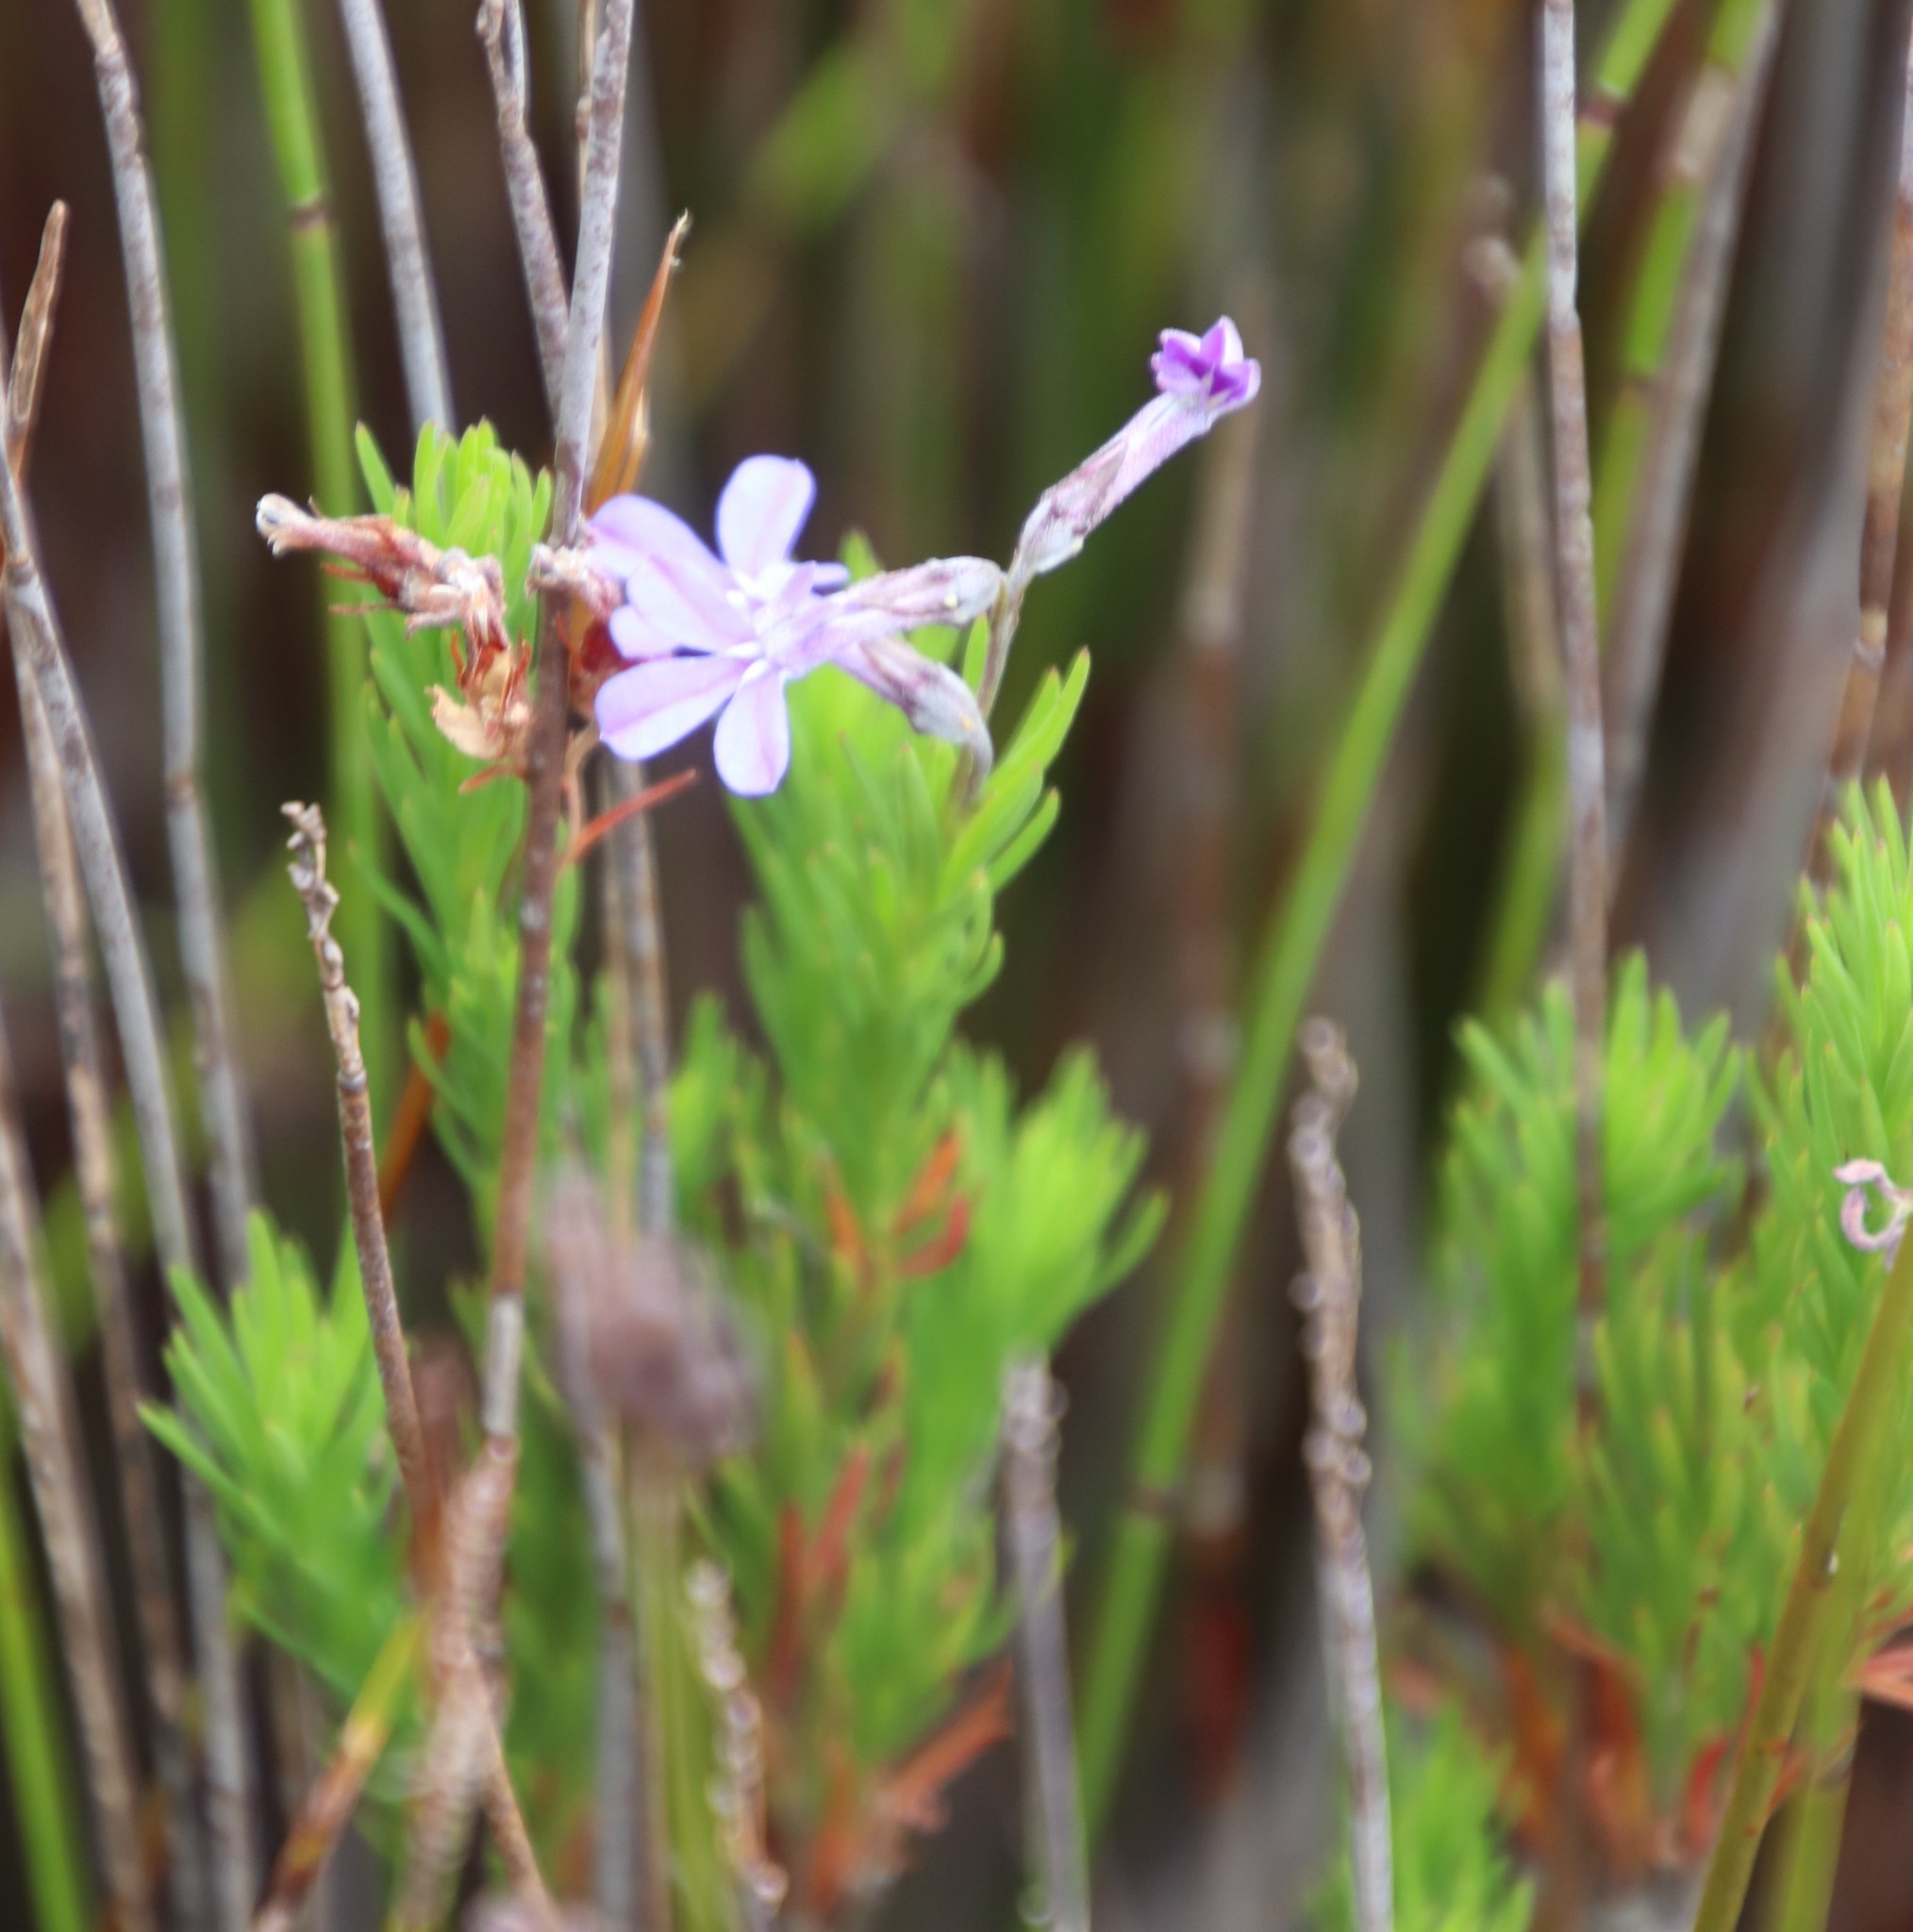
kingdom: Plantae
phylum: Tracheophyta
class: Magnoliopsida
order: Asterales
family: Campanulaceae
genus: Lobelia
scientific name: Lobelia pinifolia
